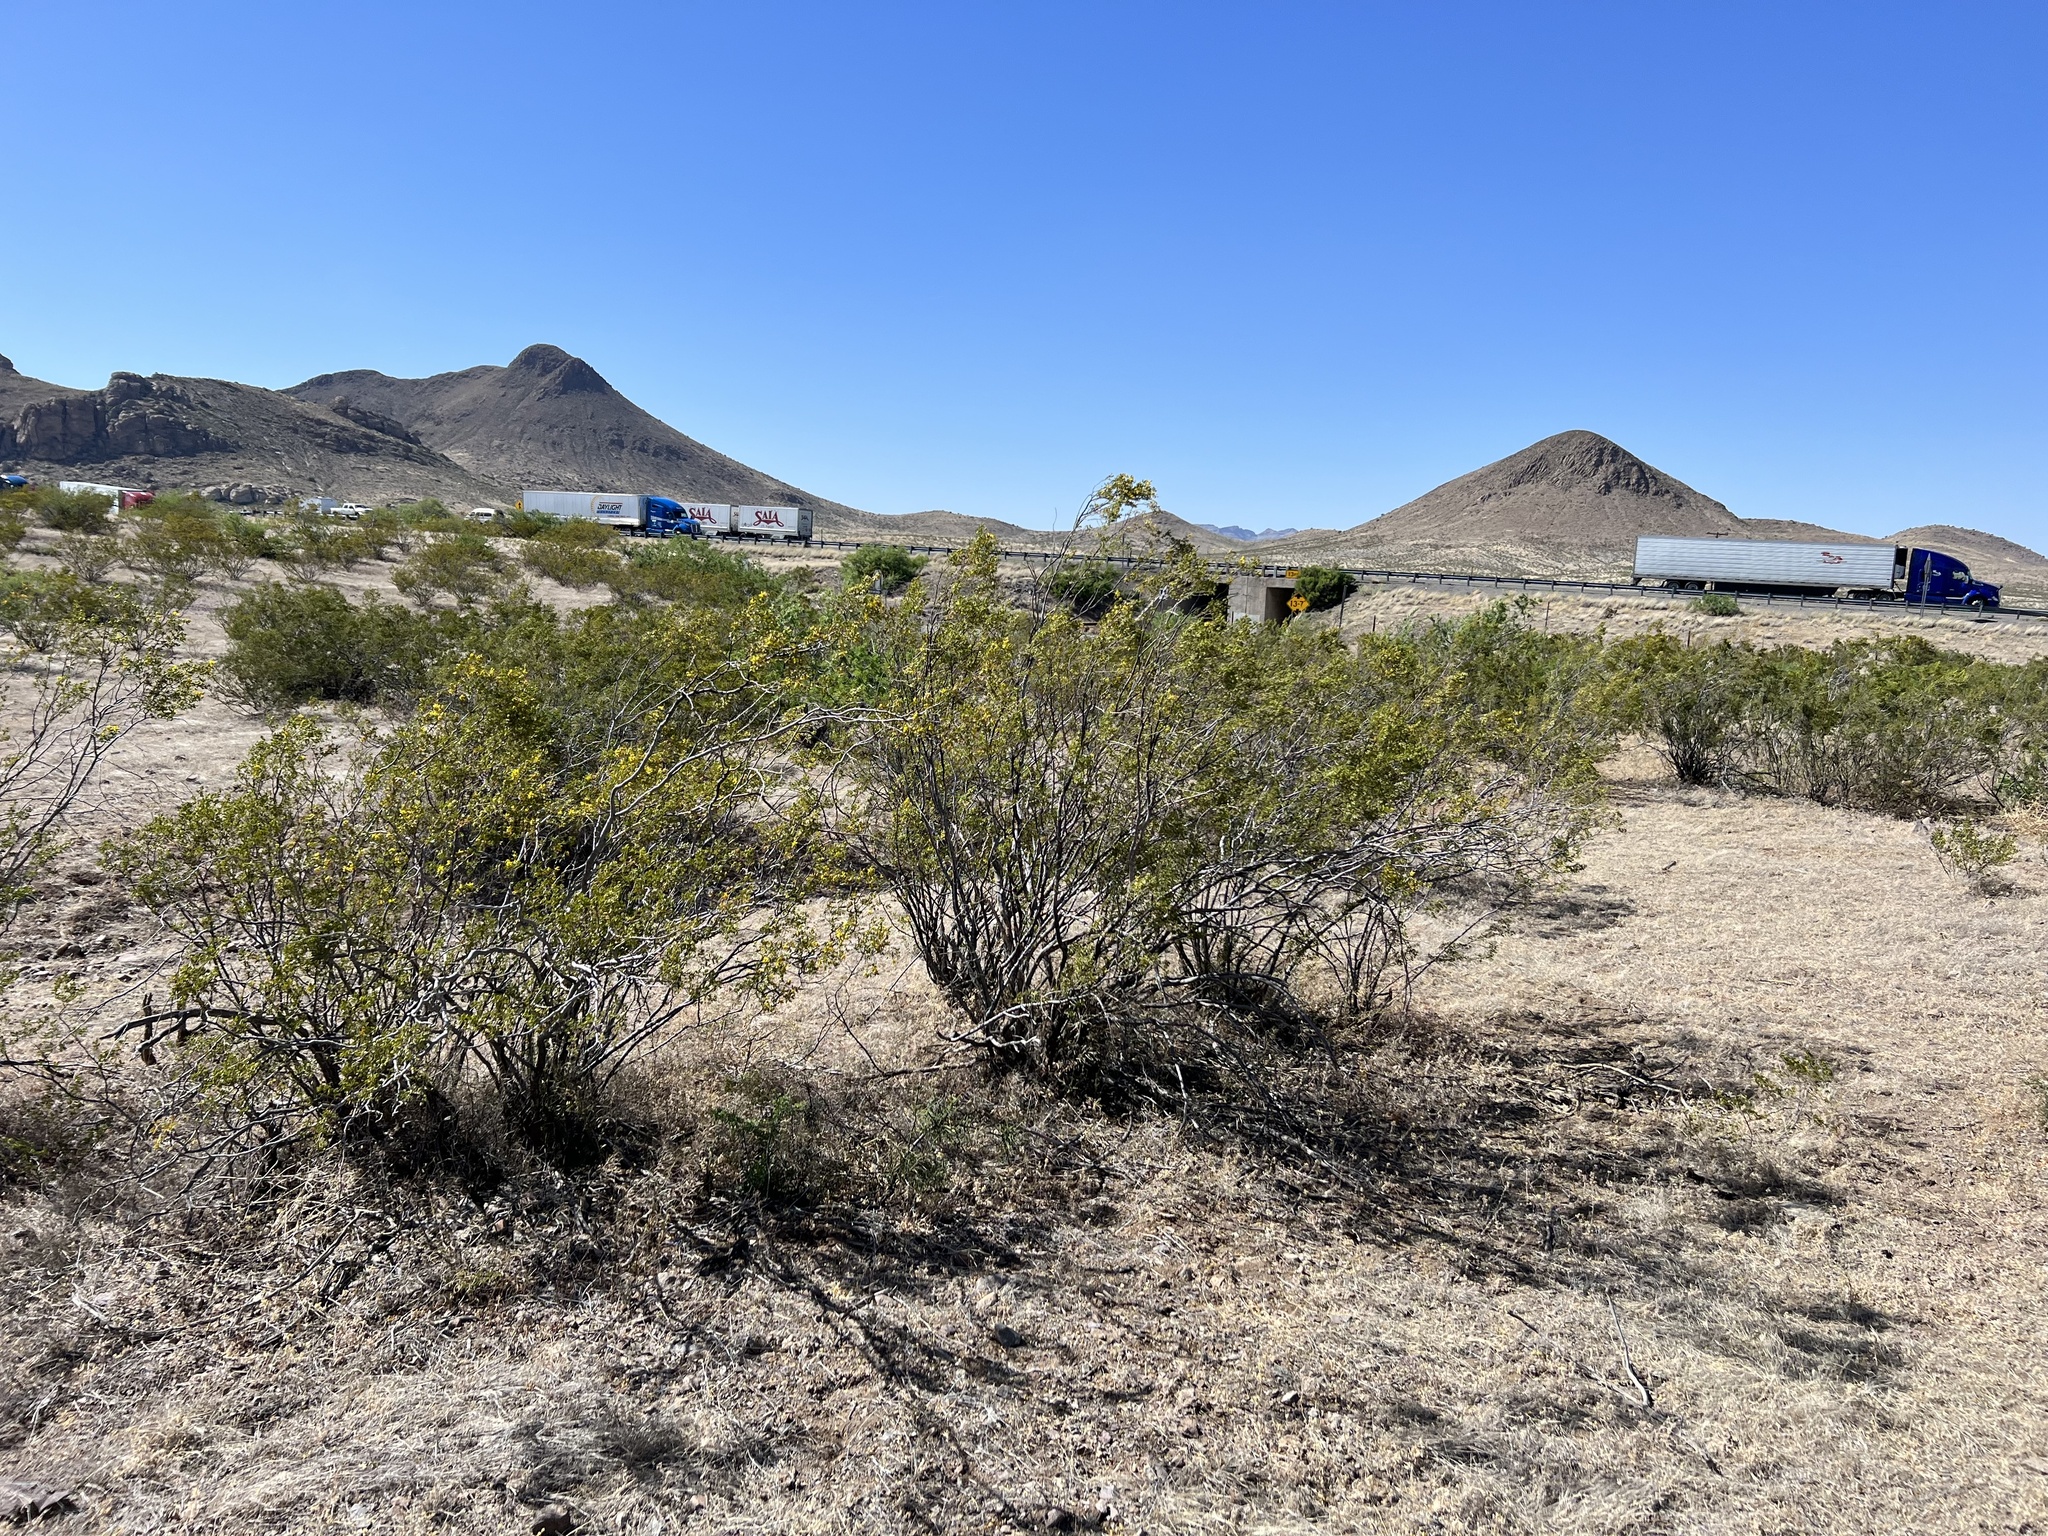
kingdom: Plantae
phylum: Tracheophyta
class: Magnoliopsida
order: Zygophyllales
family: Zygophyllaceae
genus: Larrea
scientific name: Larrea tridentata
